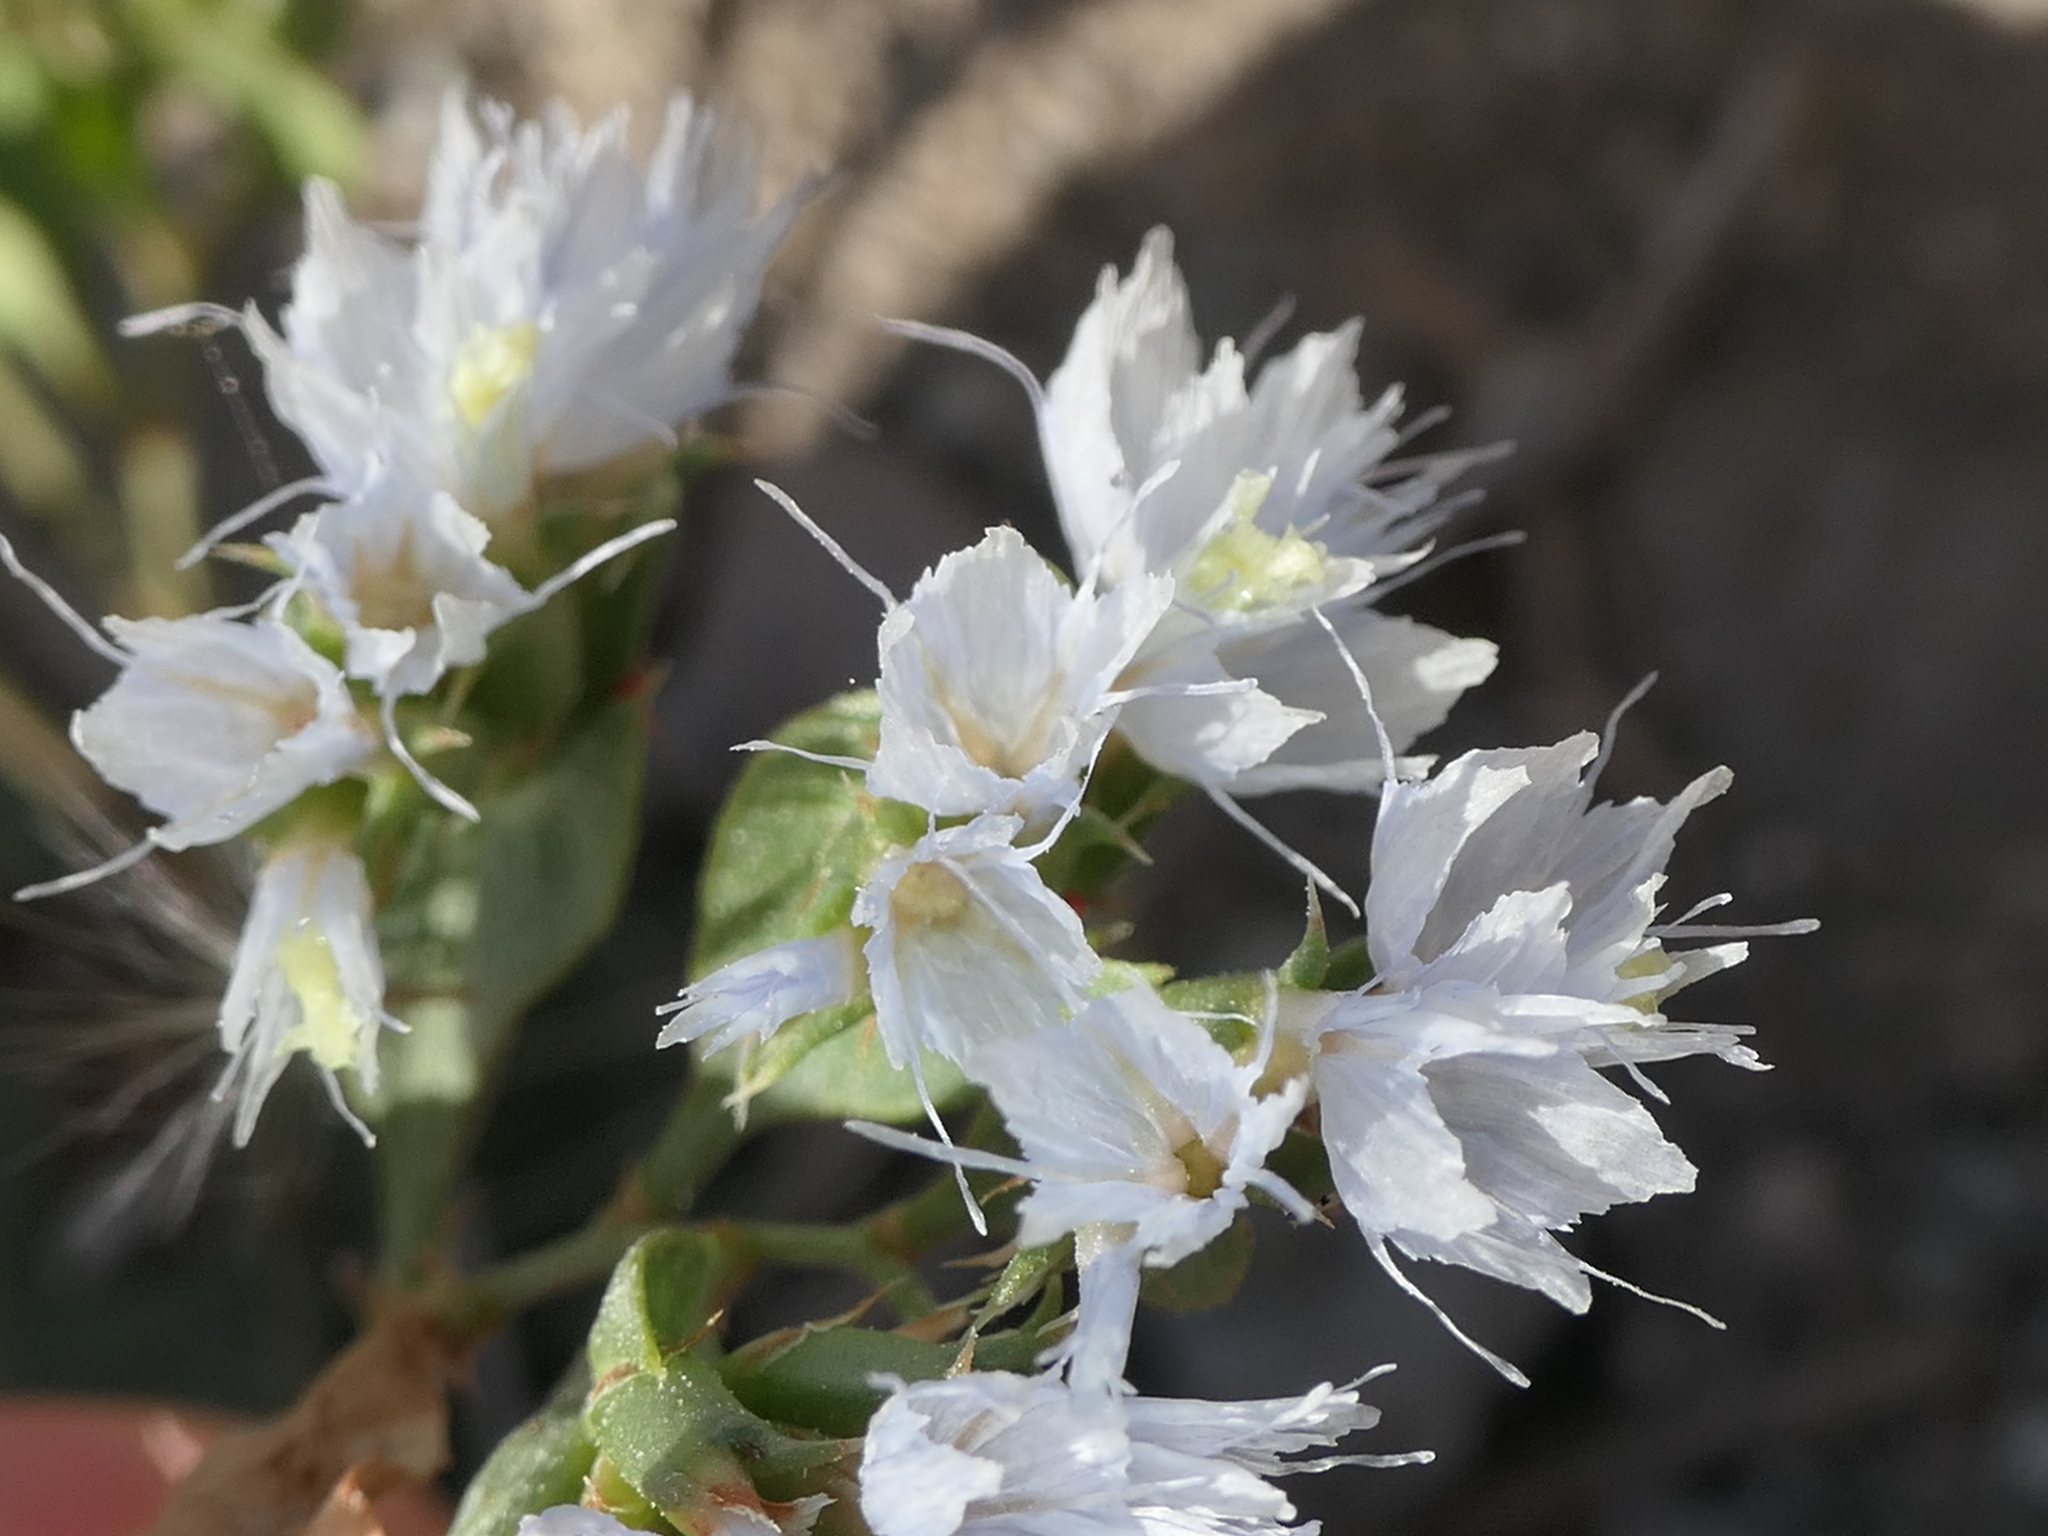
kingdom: Plantae
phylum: Tracheophyta
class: Magnoliopsida
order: Caryophyllales
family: Plumbaginaceae
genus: Limonium
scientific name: Limonium lobatum
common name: Winged sea-lavender
